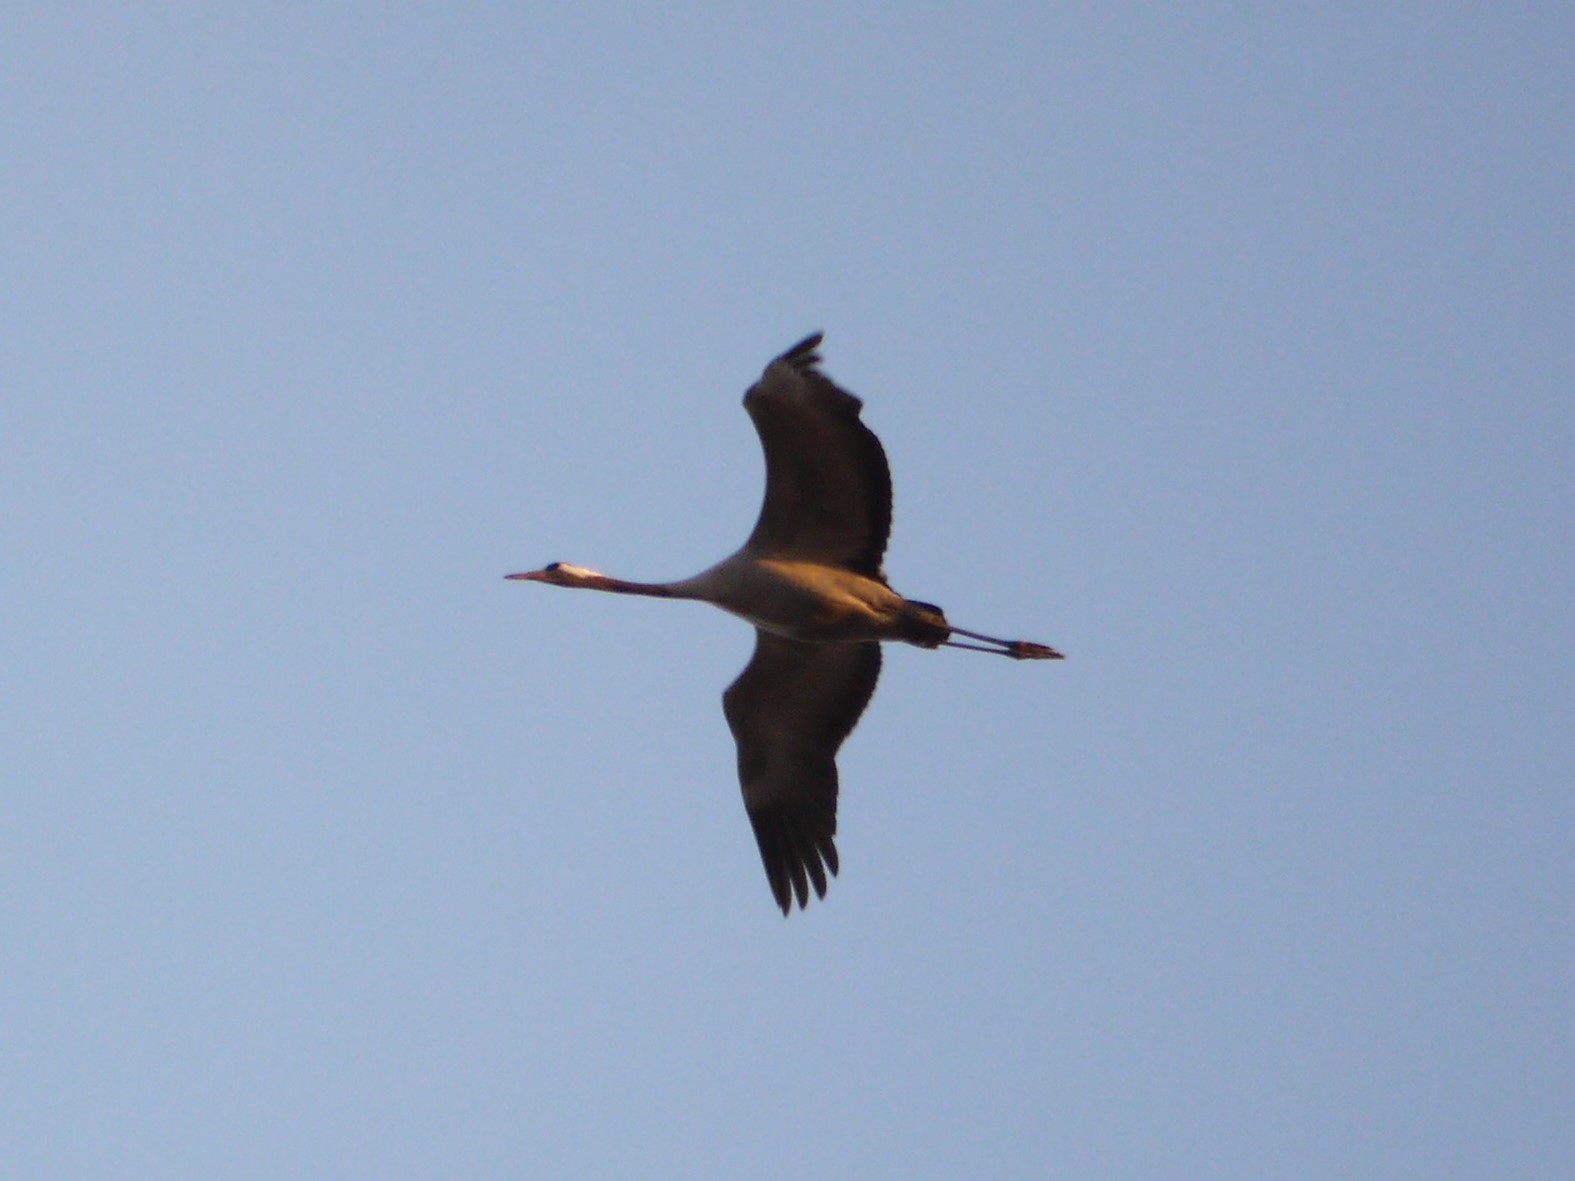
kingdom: Animalia
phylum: Chordata
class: Aves
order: Gruiformes
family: Gruidae
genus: Grus
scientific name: Grus grus
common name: Common crane
